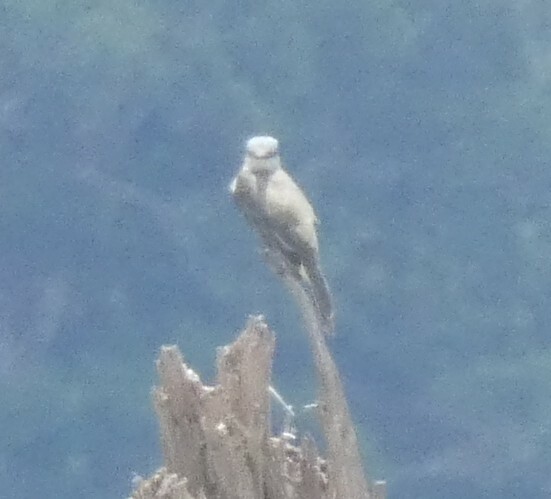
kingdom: Animalia
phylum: Chordata
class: Aves
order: Passeriformes
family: Tyrannidae
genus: Tyrannus
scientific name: Tyrannus melancholicus
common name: Tropical kingbird
